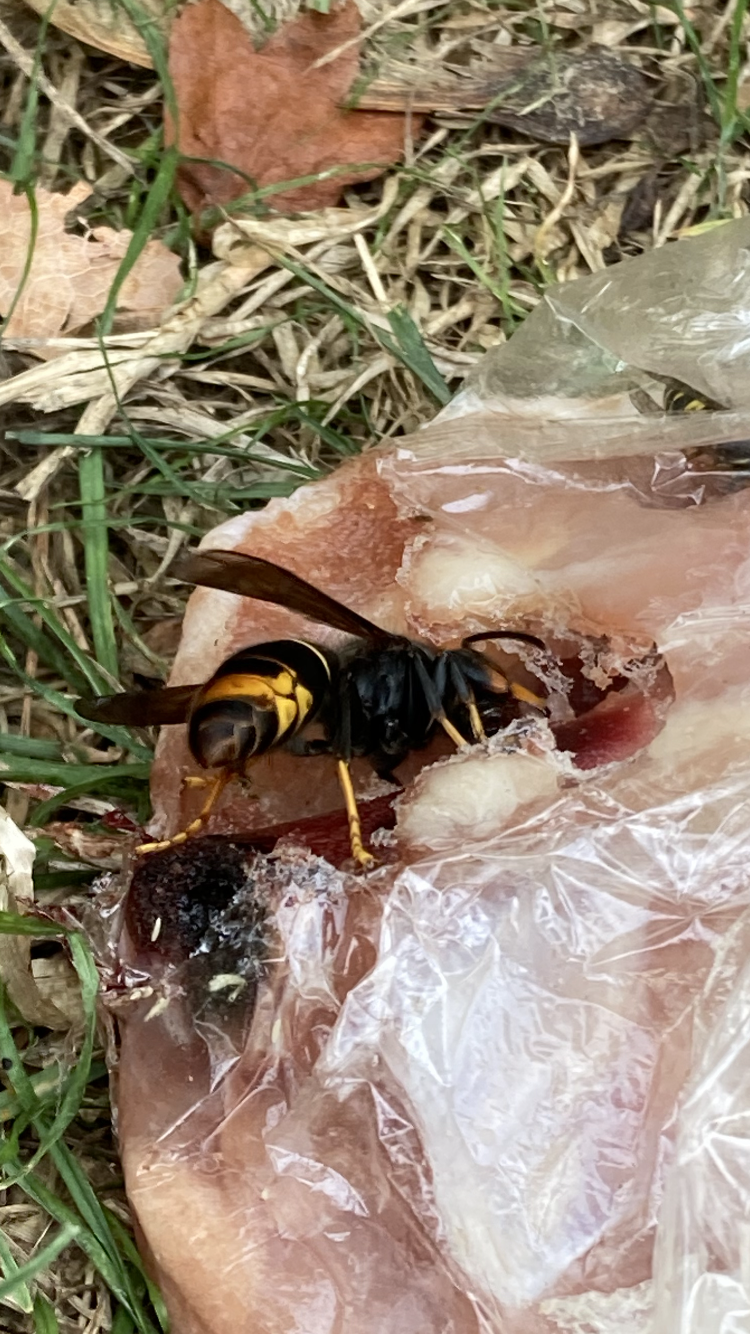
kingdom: Animalia
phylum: Arthropoda
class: Insecta
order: Hymenoptera
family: Vespidae
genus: Vespa
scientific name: Vespa velutina
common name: Asian hornet
